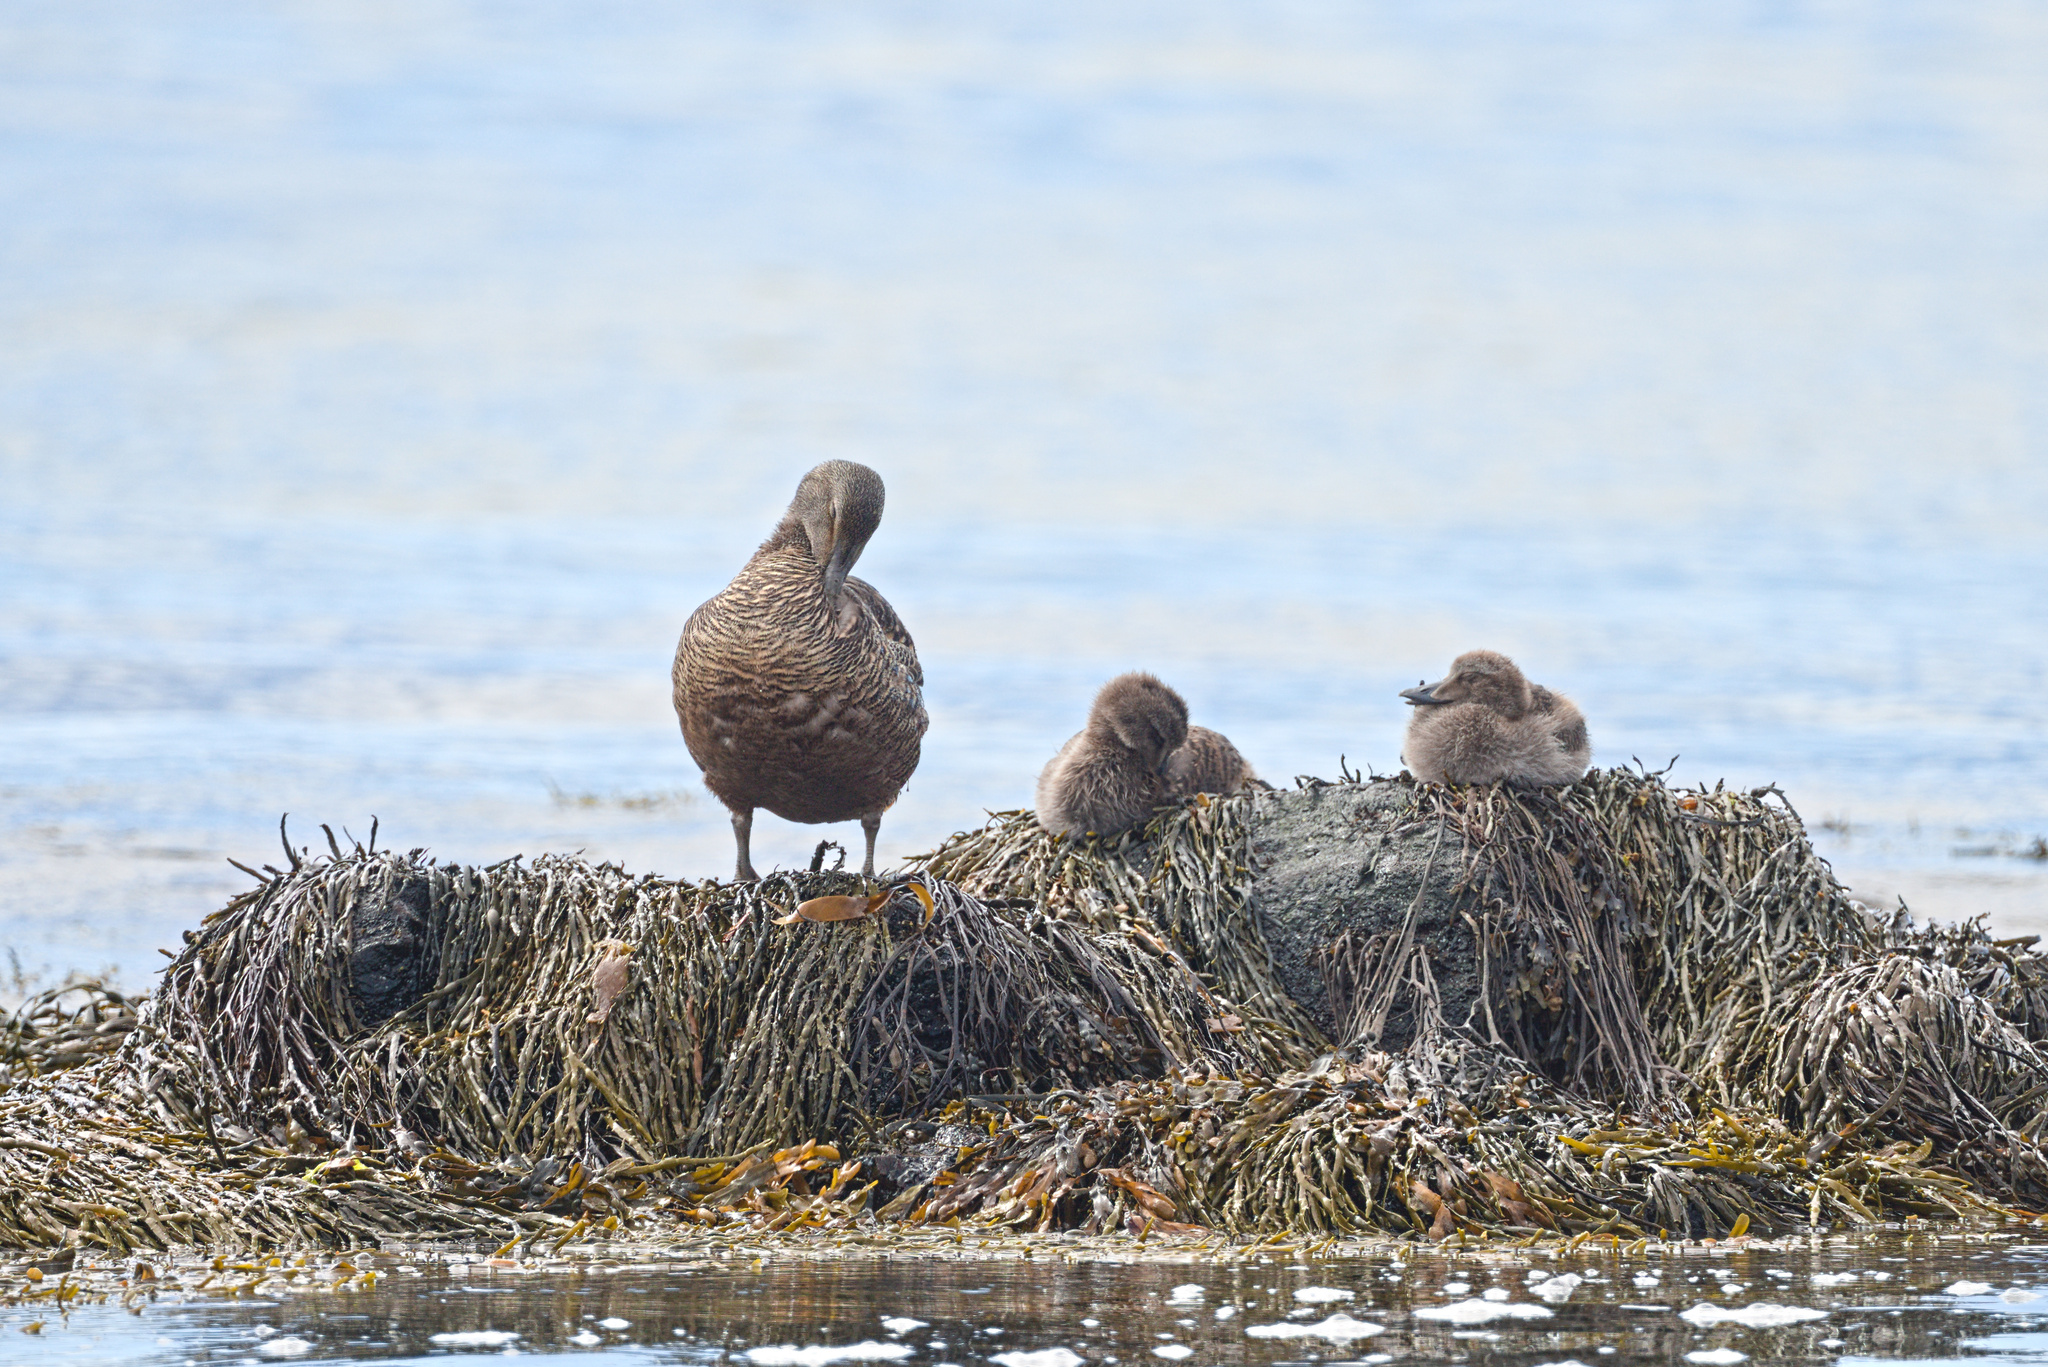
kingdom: Animalia
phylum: Chordata
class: Aves
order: Anseriformes
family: Anatidae
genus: Somateria
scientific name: Somateria mollissima
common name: Common eider
